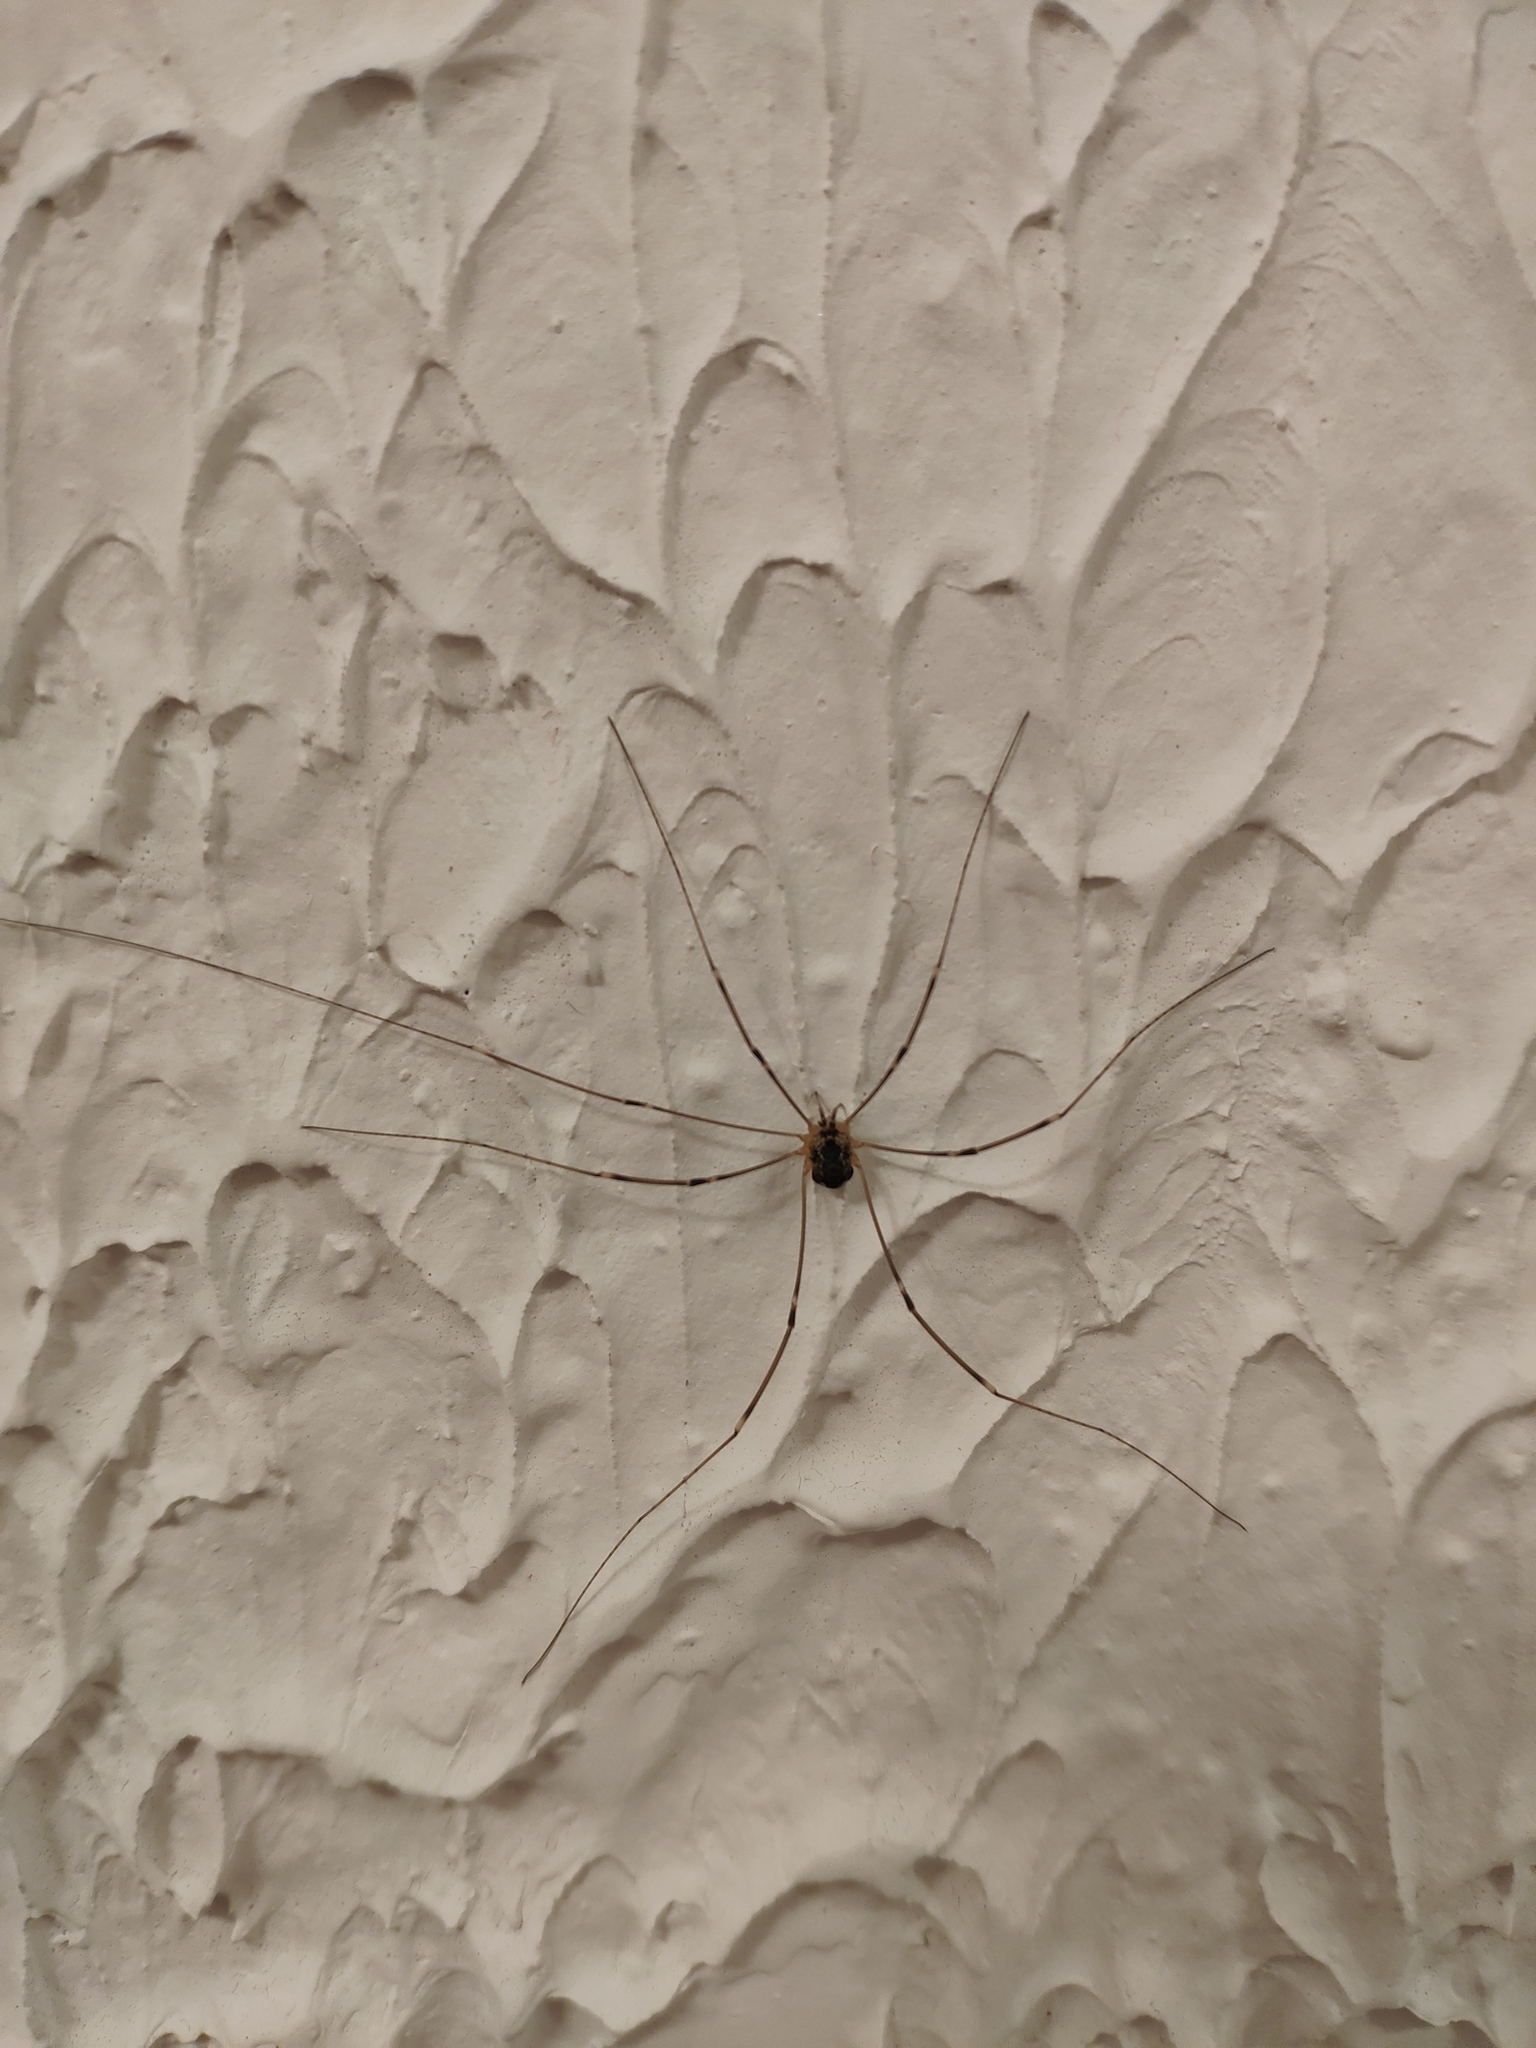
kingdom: Animalia
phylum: Arthropoda
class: Arachnida
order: Opiliones
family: Sclerosomatidae
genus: Leiobunum
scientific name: Leiobunum gracile
